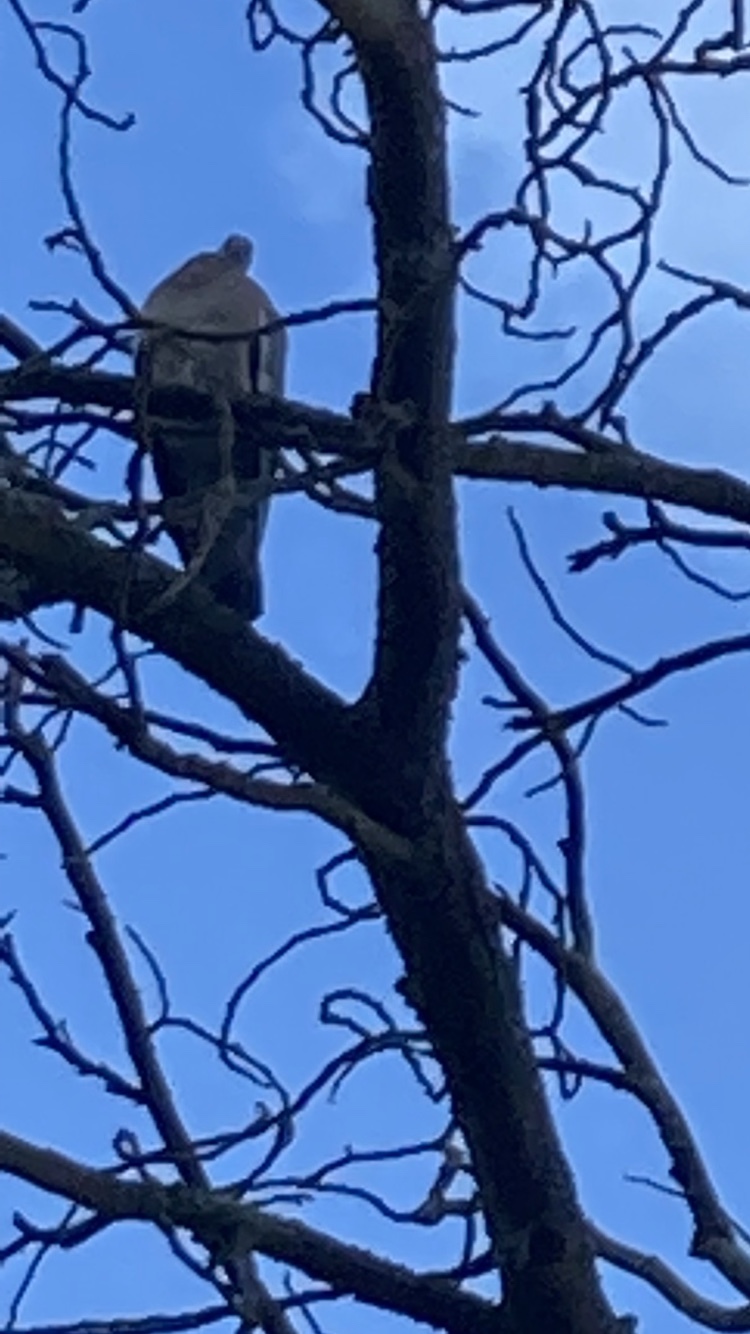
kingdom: Animalia
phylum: Chordata
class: Aves
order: Columbiformes
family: Columbidae
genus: Columba
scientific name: Columba palumbus
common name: Common wood pigeon
